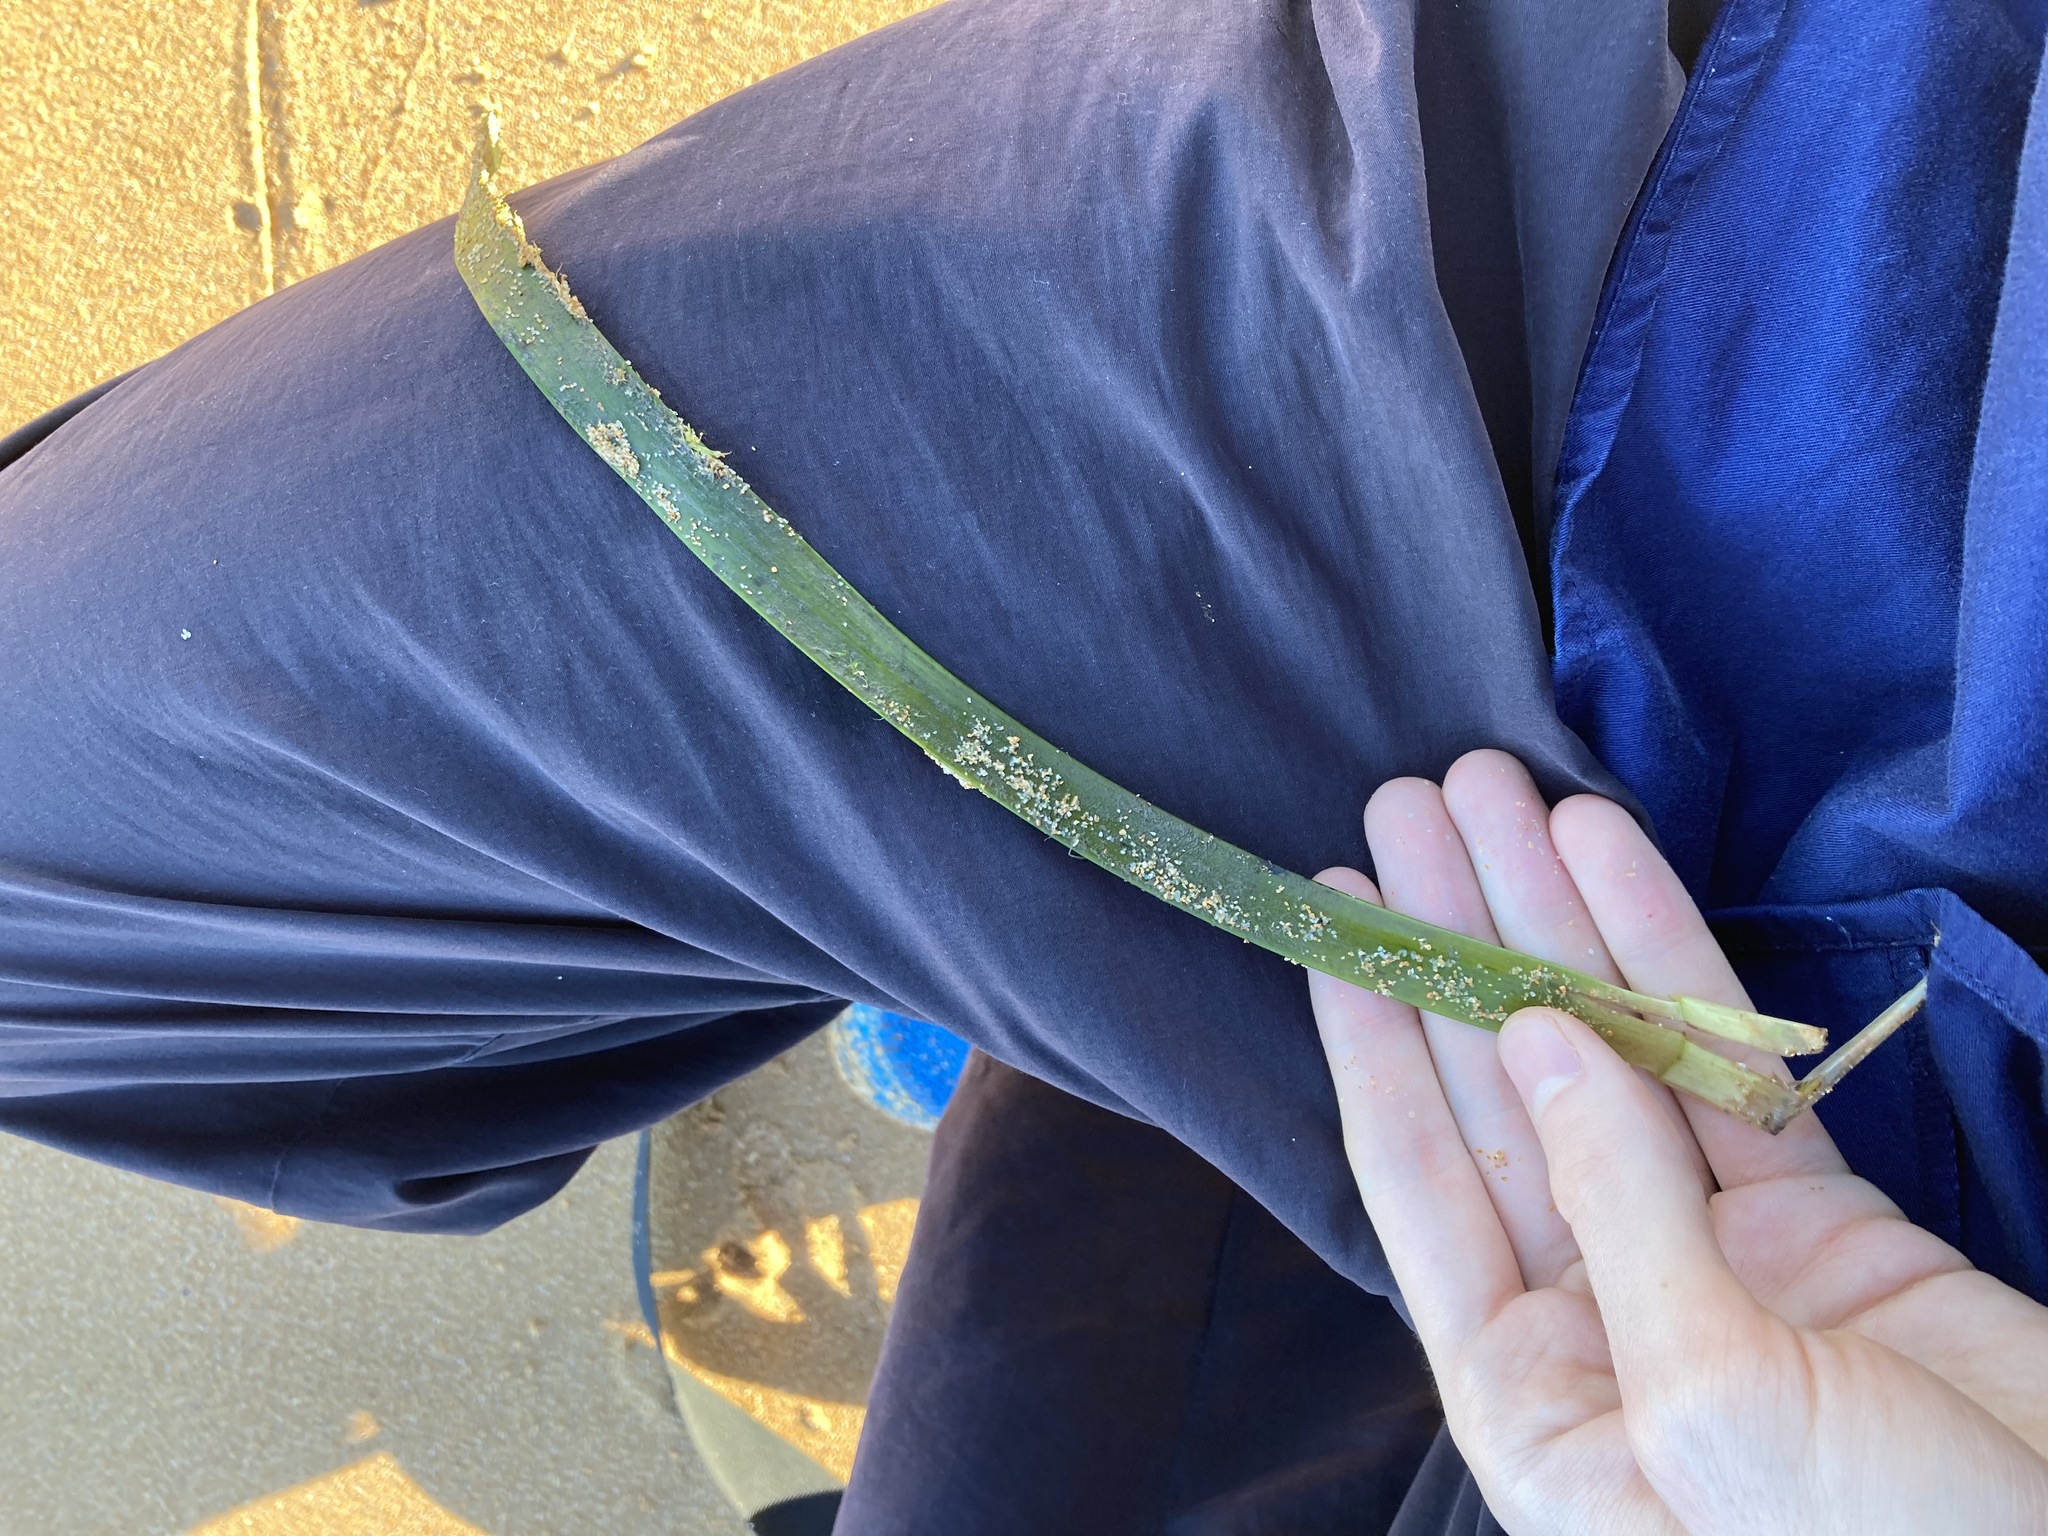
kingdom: Plantae
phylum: Tracheophyta
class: Liliopsida
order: Alismatales
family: Posidoniaceae
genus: Posidonia
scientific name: Posidonia australis
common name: Species code: pa
